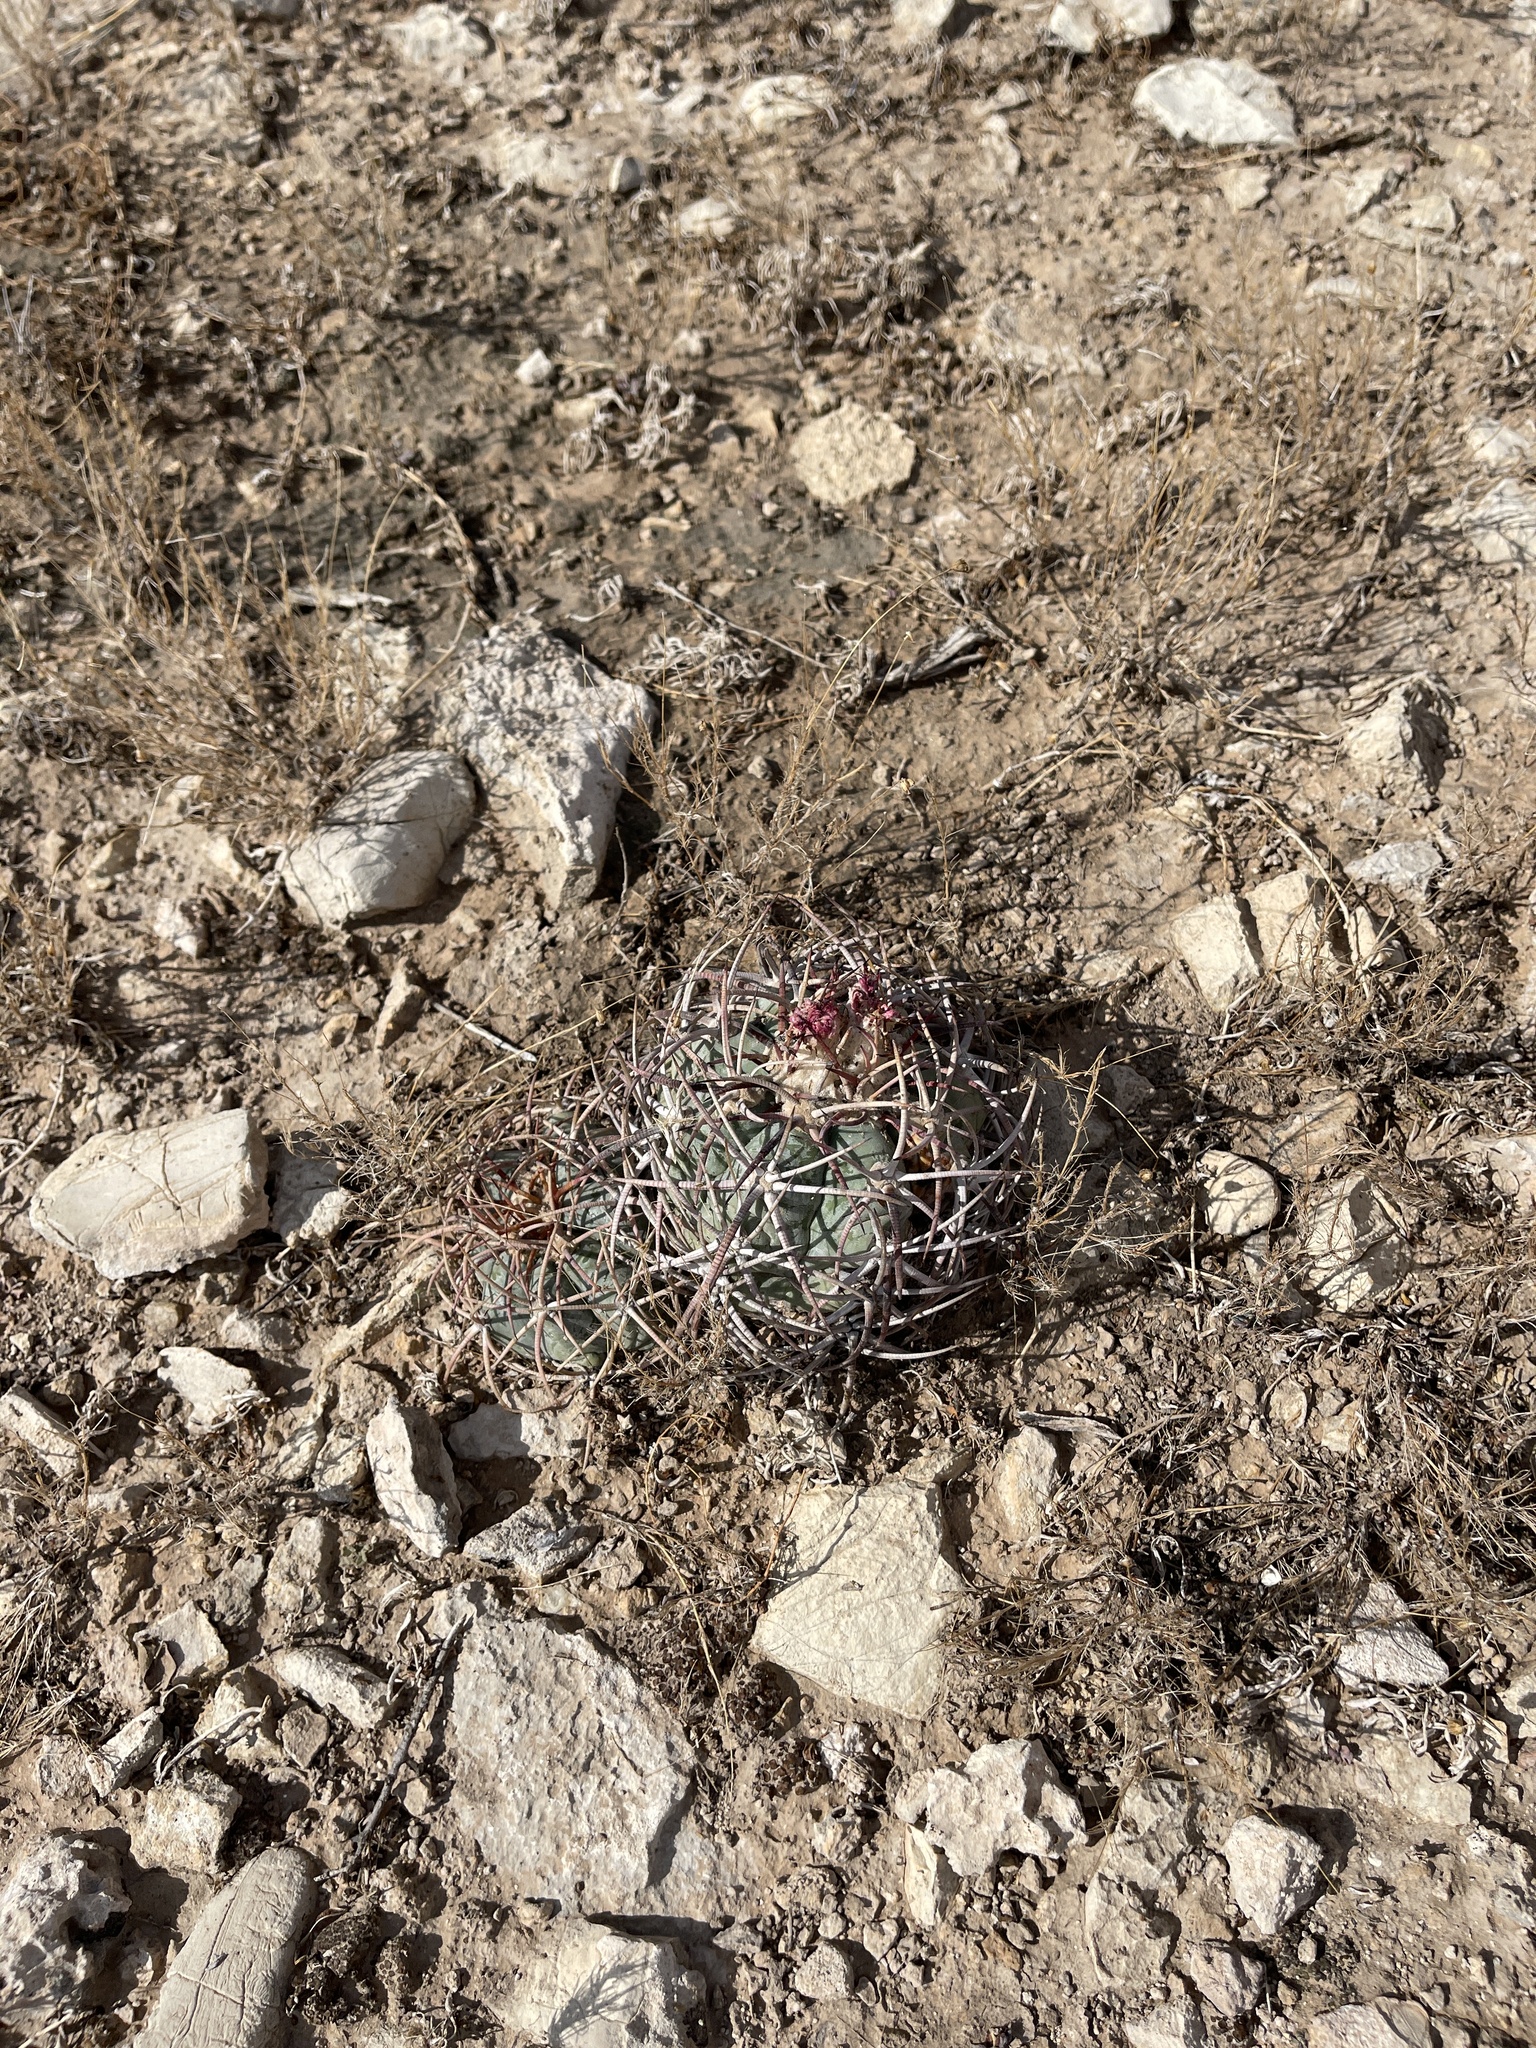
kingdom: Plantae
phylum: Tracheophyta
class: Magnoliopsida
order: Caryophyllales
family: Cactaceae
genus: Echinocactus
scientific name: Echinocactus horizonthalonius
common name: Devilshead
